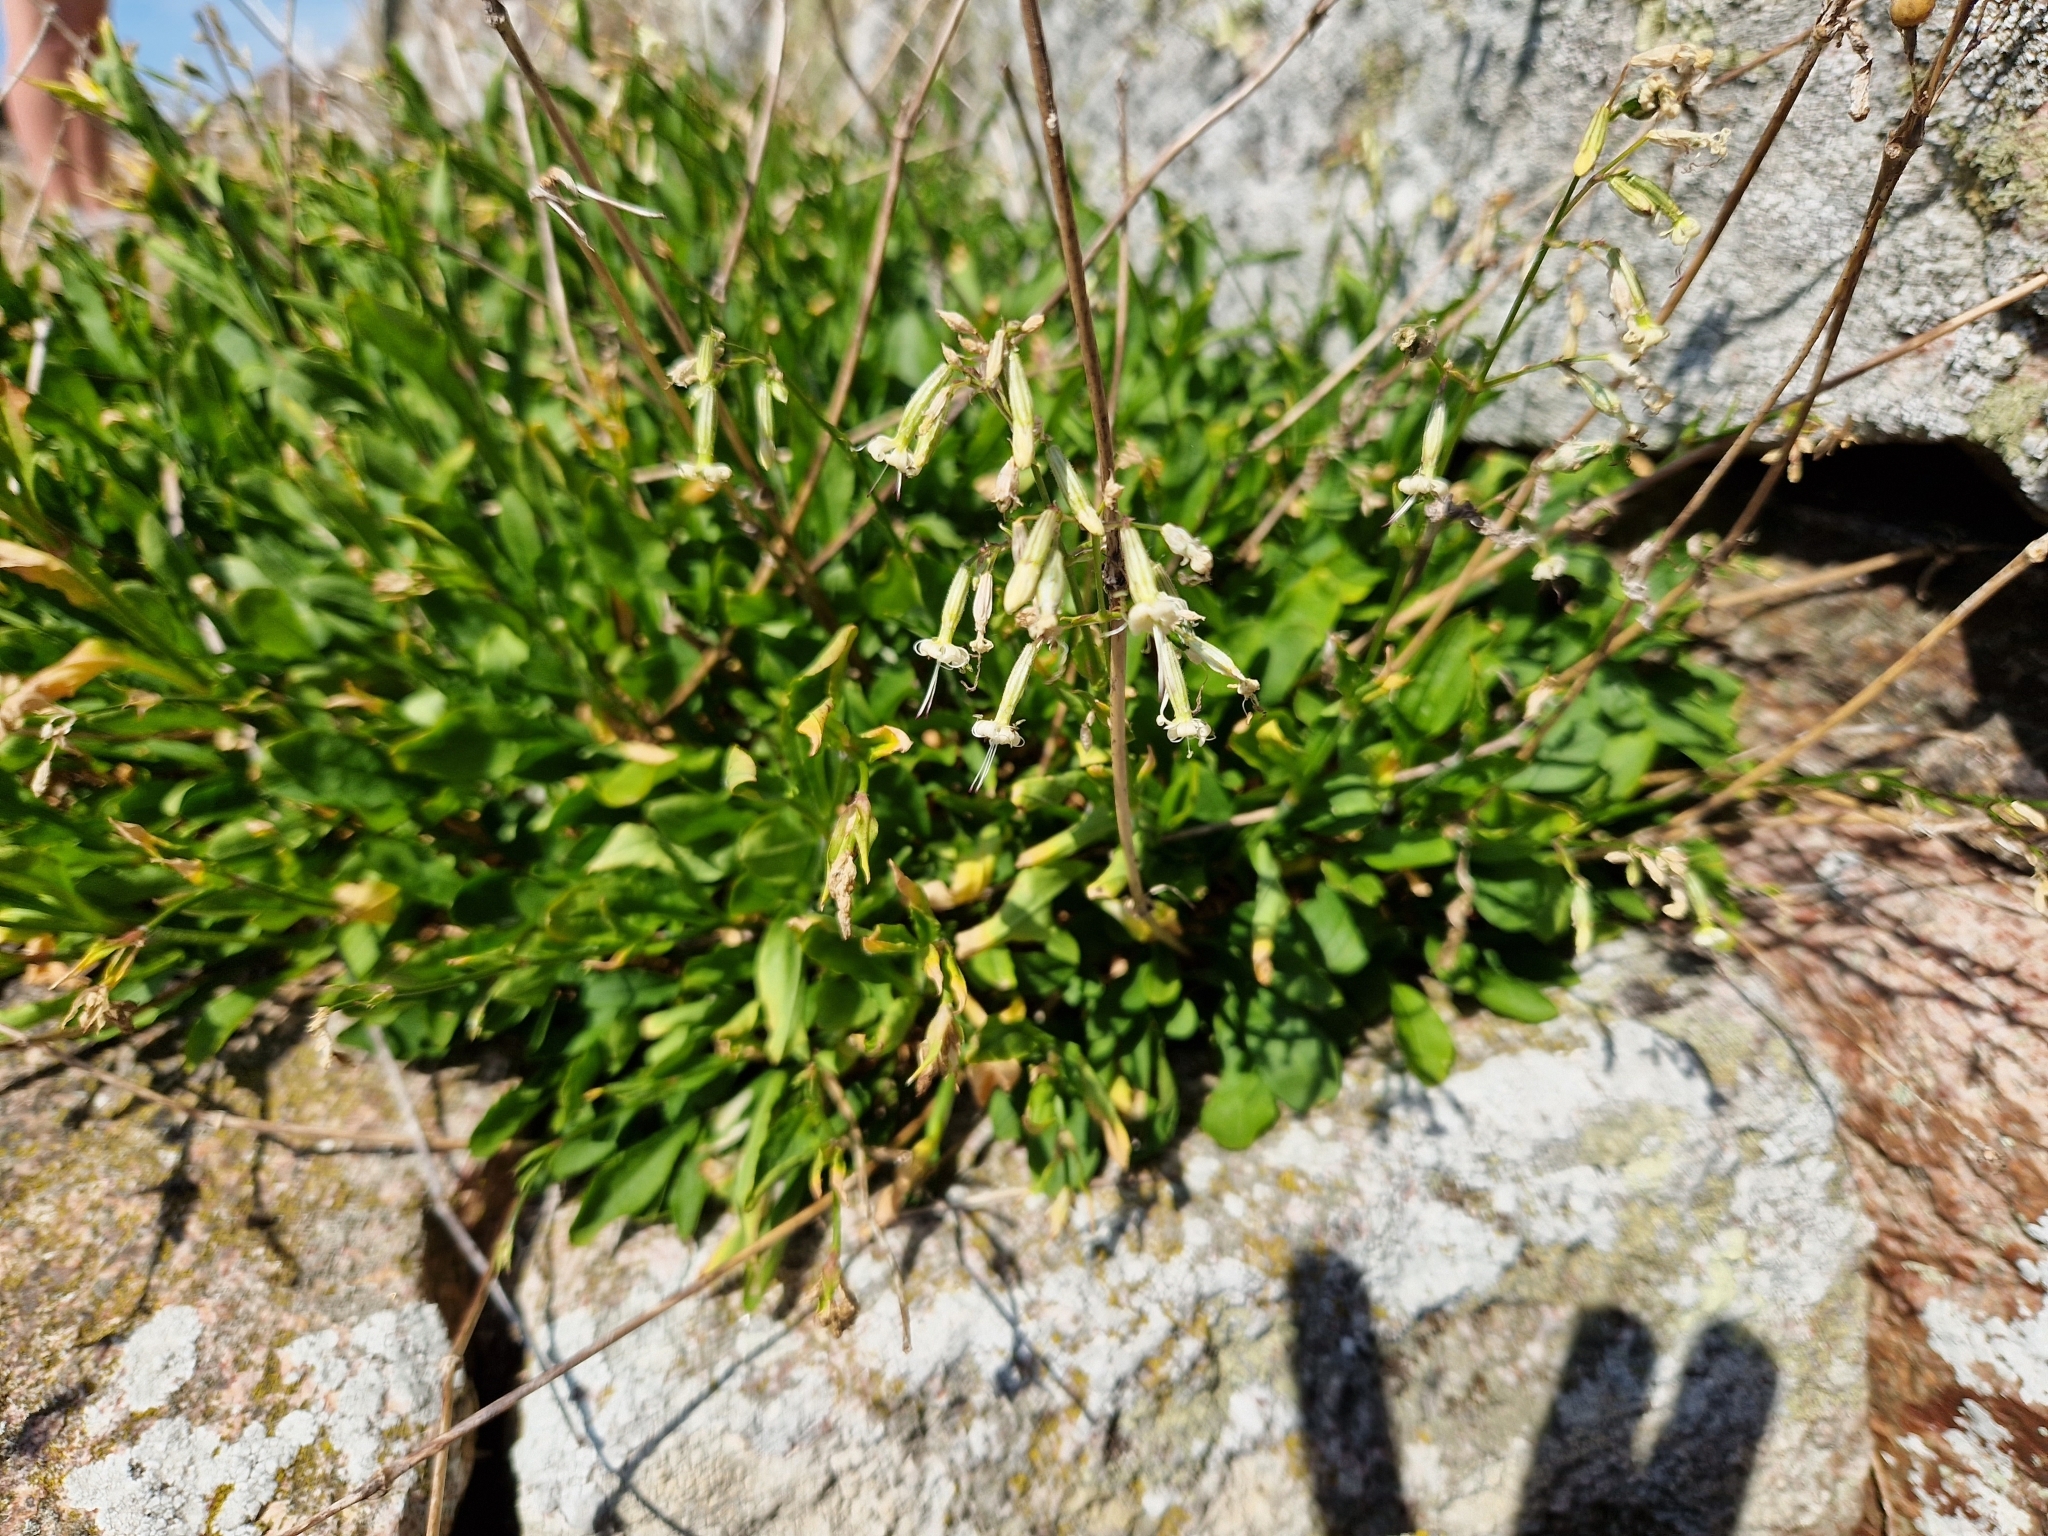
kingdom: Plantae
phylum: Tracheophyta
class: Magnoliopsida
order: Caryophyllales
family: Caryophyllaceae
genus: Silene
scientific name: Silene nutans
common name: Nottingham catchfly
